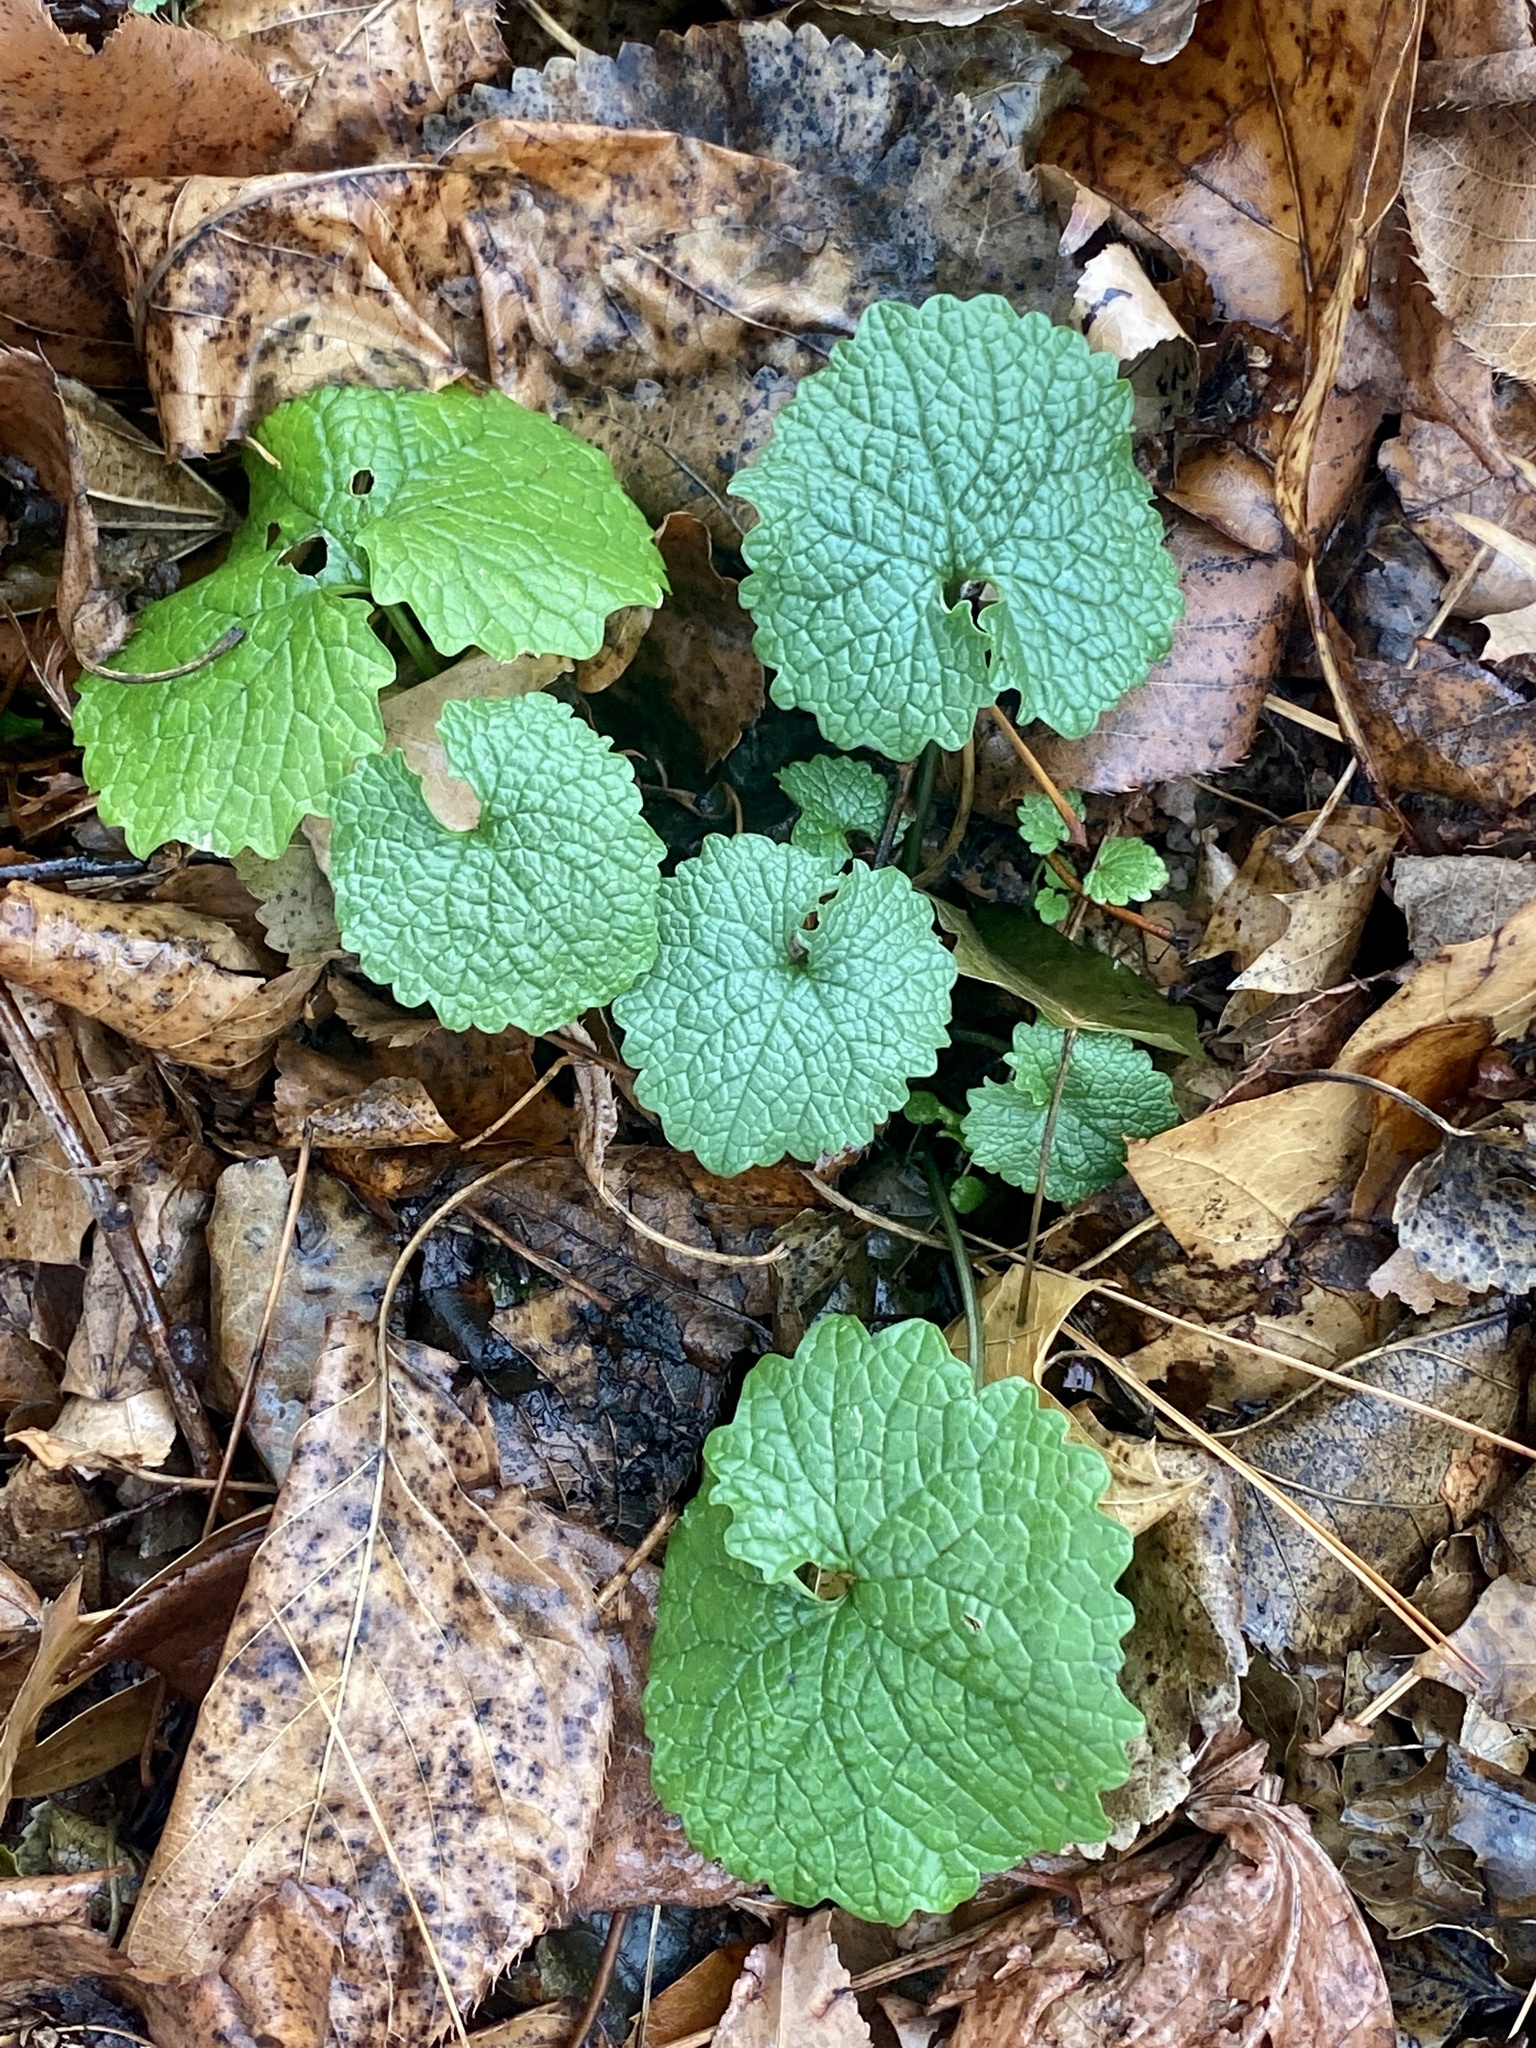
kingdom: Plantae
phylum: Tracheophyta
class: Magnoliopsida
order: Brassicales
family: Brassicaceae
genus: Alliaria
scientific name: Alliaria petiolata
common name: Garlic mustard
